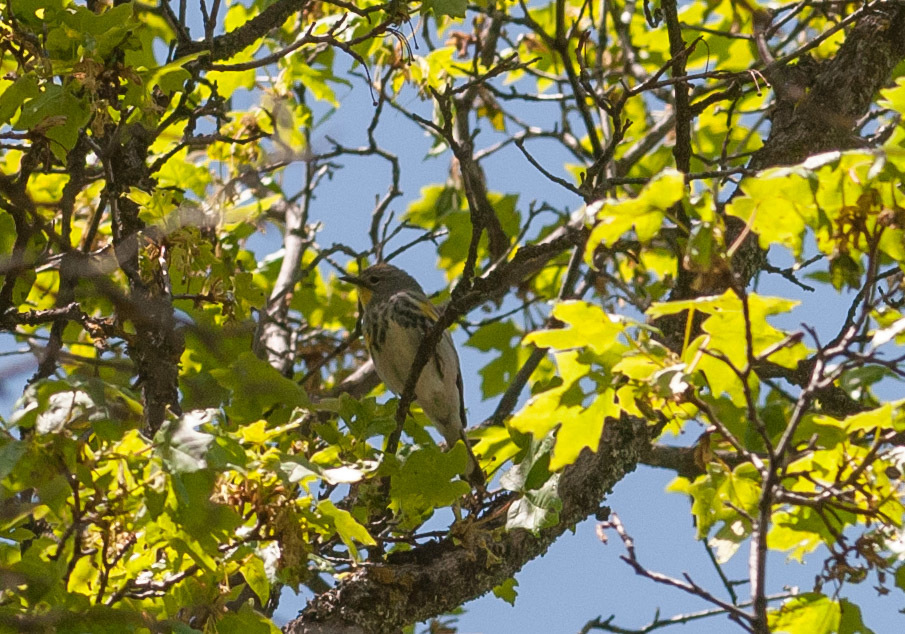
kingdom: Animalia
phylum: Chordata
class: Aves
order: Passeriformes
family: Parulidae
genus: Setophaga
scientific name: Setophaga auduboni
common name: Audubon's warbler
